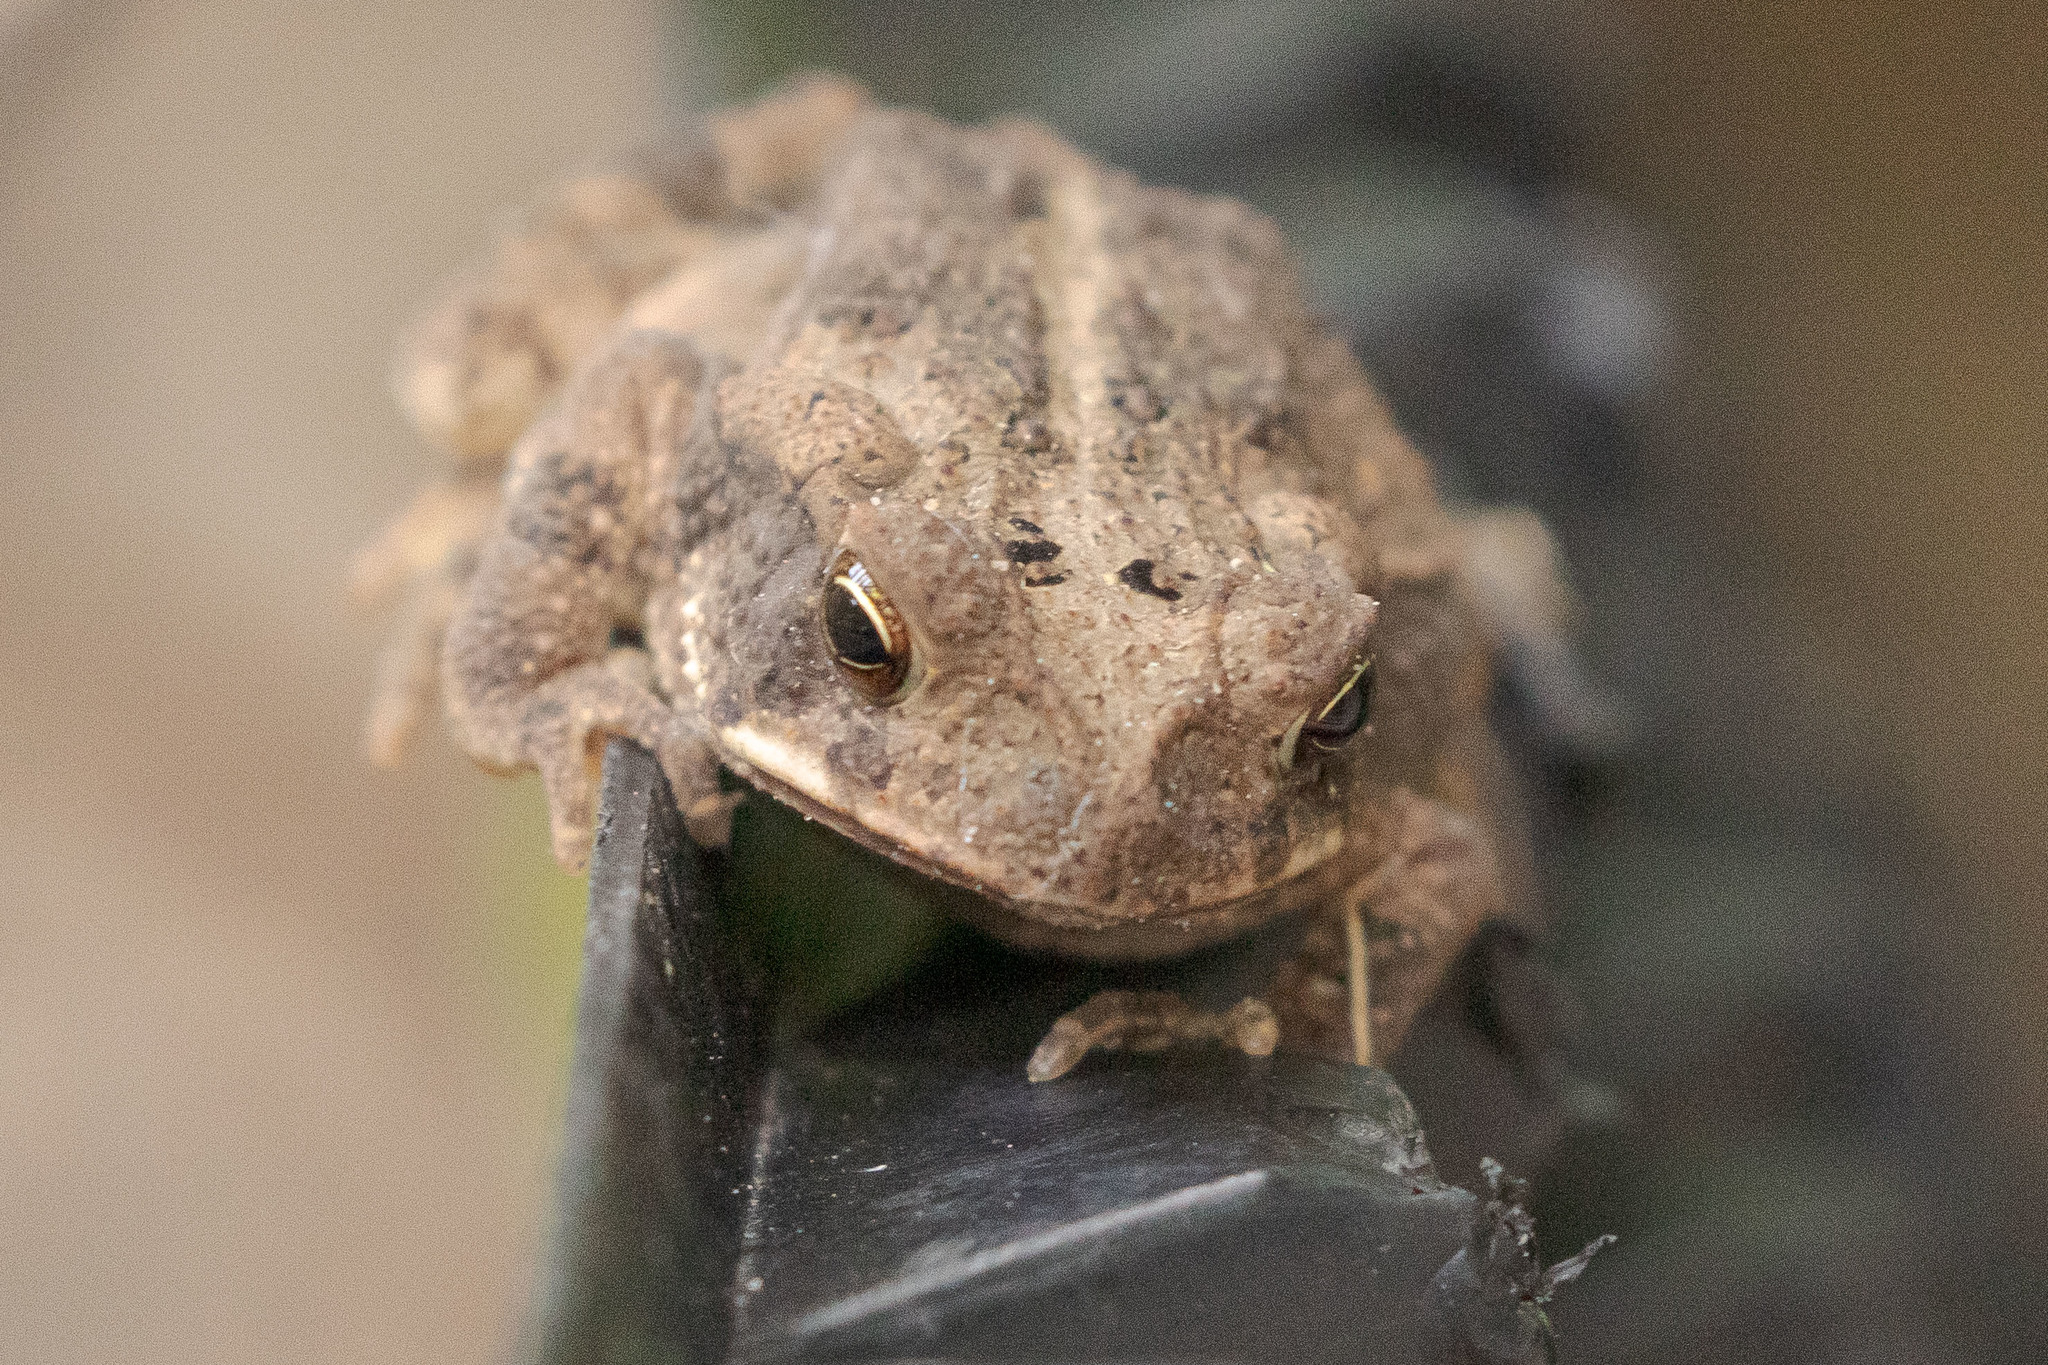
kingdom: Animalia
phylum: Chordata
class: Amphibia
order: Anura
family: Bufonidae
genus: Incilius
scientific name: Incilius nebulifer
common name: Gulf coast toad
